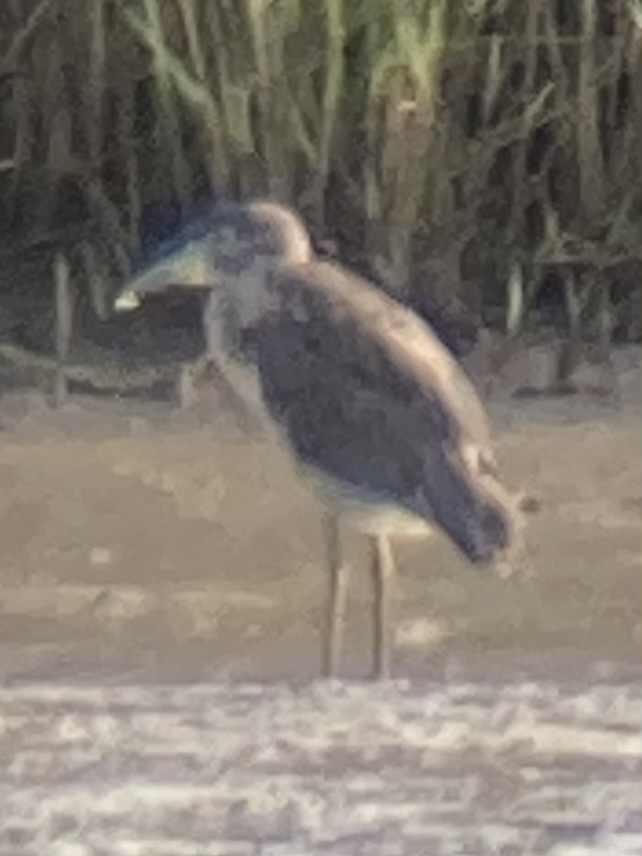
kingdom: Animalia
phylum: Chordata
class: Aves
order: Pelecaniformes
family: Ardeidae
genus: Nycticorax
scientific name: Nycticorax nycticorax
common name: Black-crowned night heron
